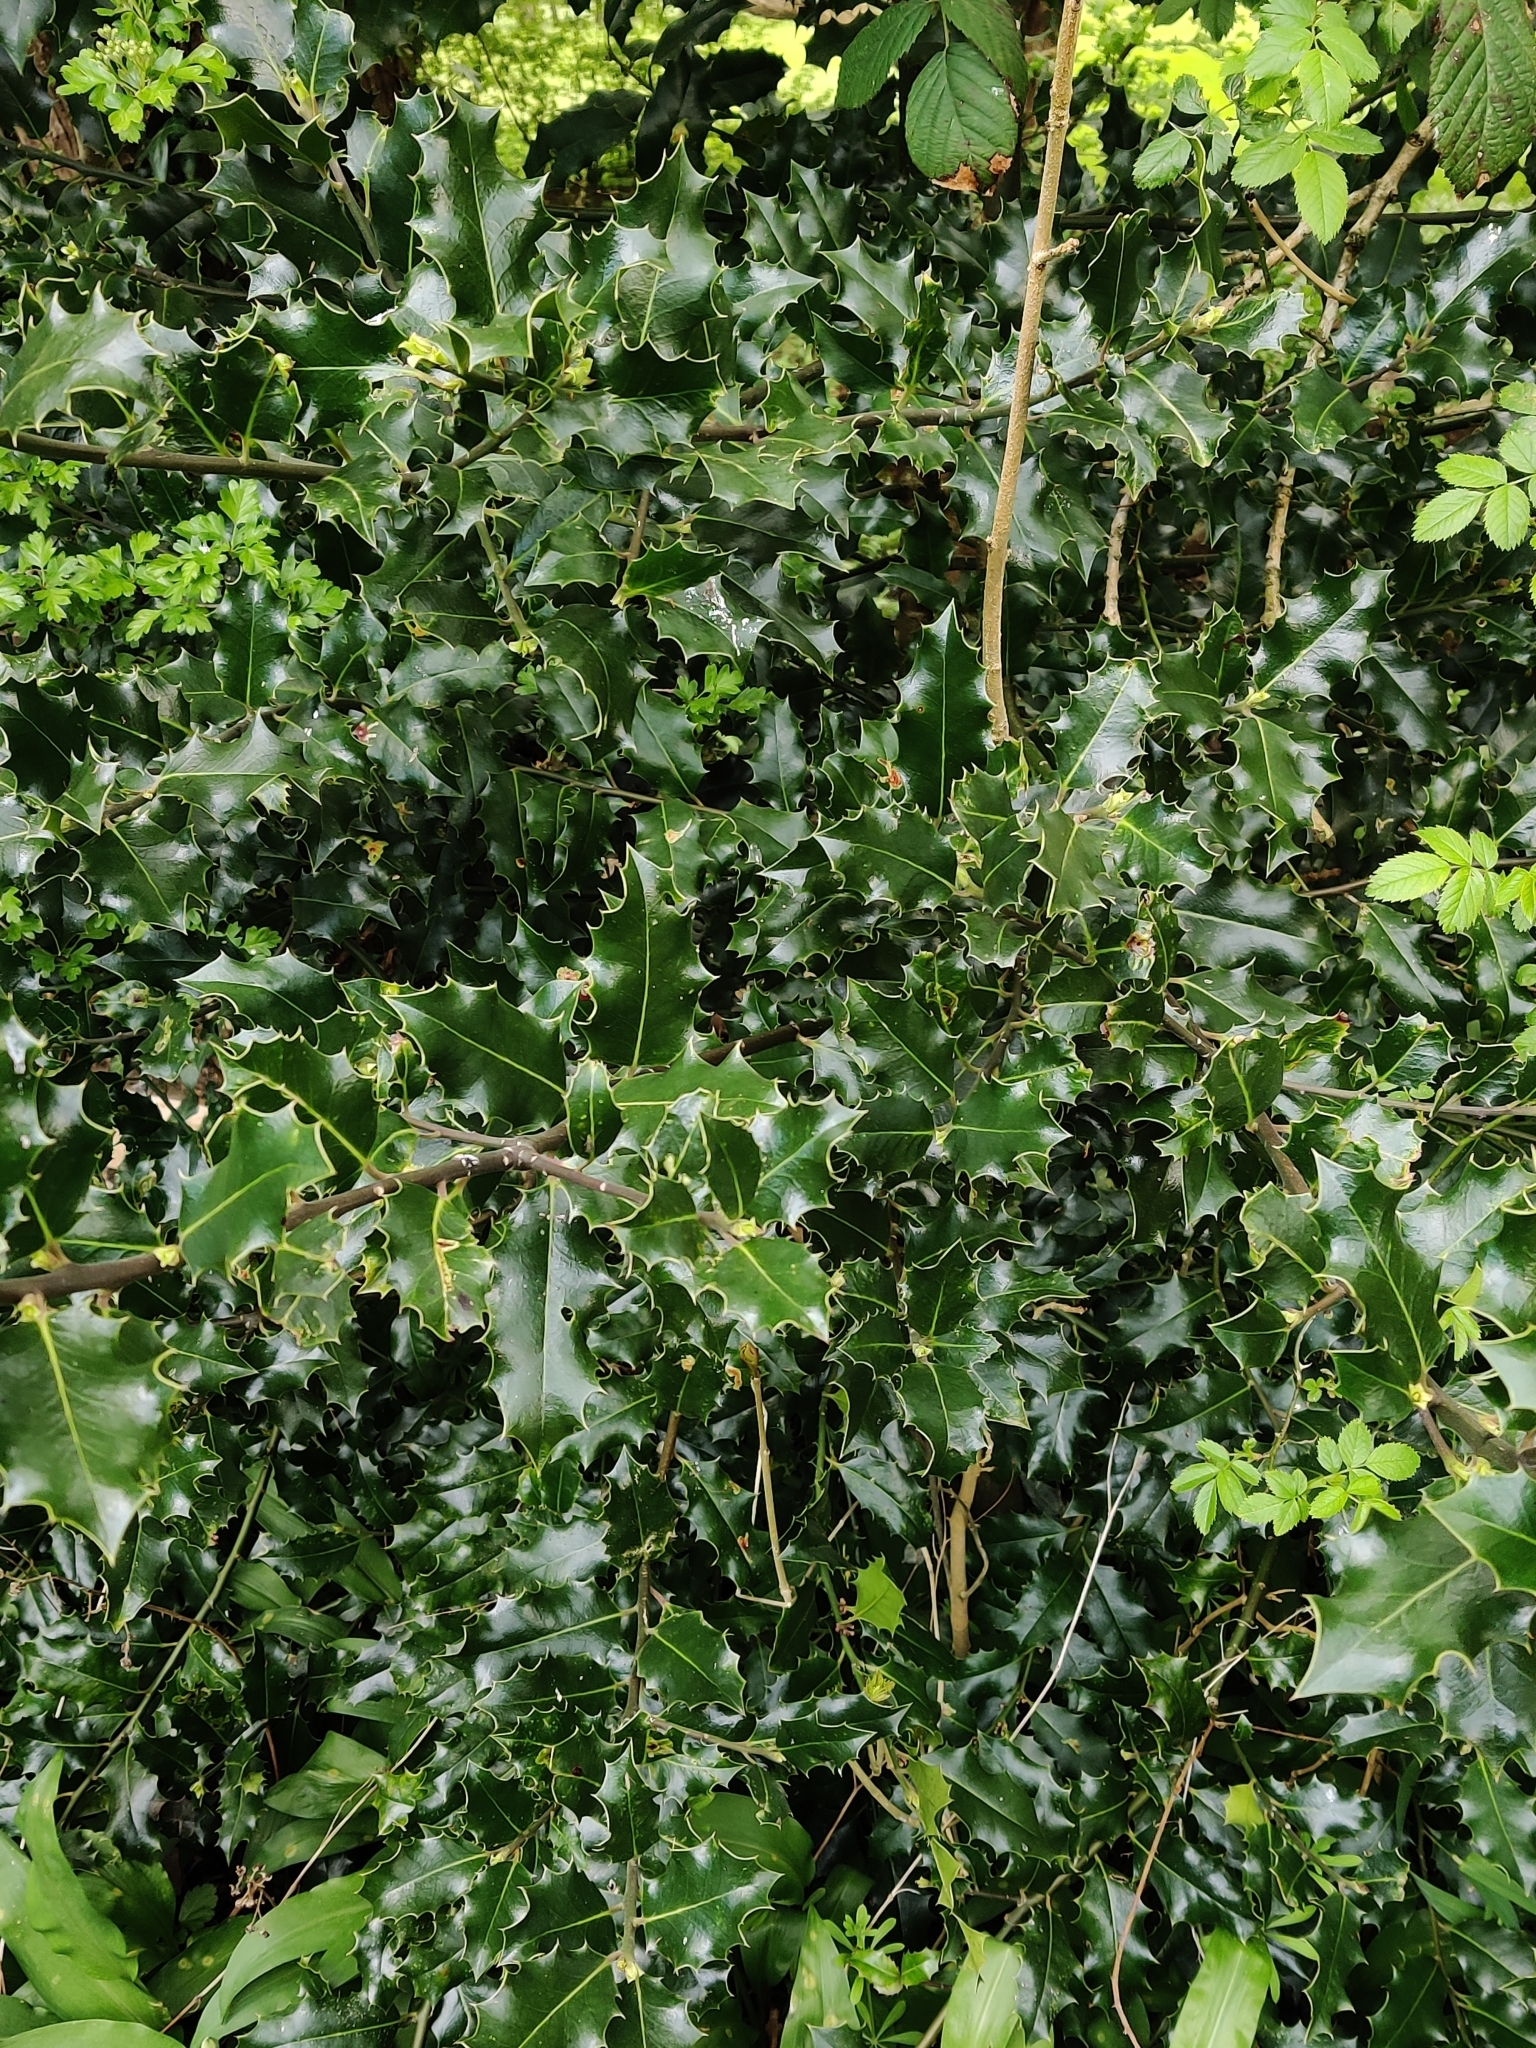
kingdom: Plantae
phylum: Tracheophyta
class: Magnoliopsida
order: Aquifoliales
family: Aquifoliaceae
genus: Ilex
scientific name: Ilex aquifolium
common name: English holly
